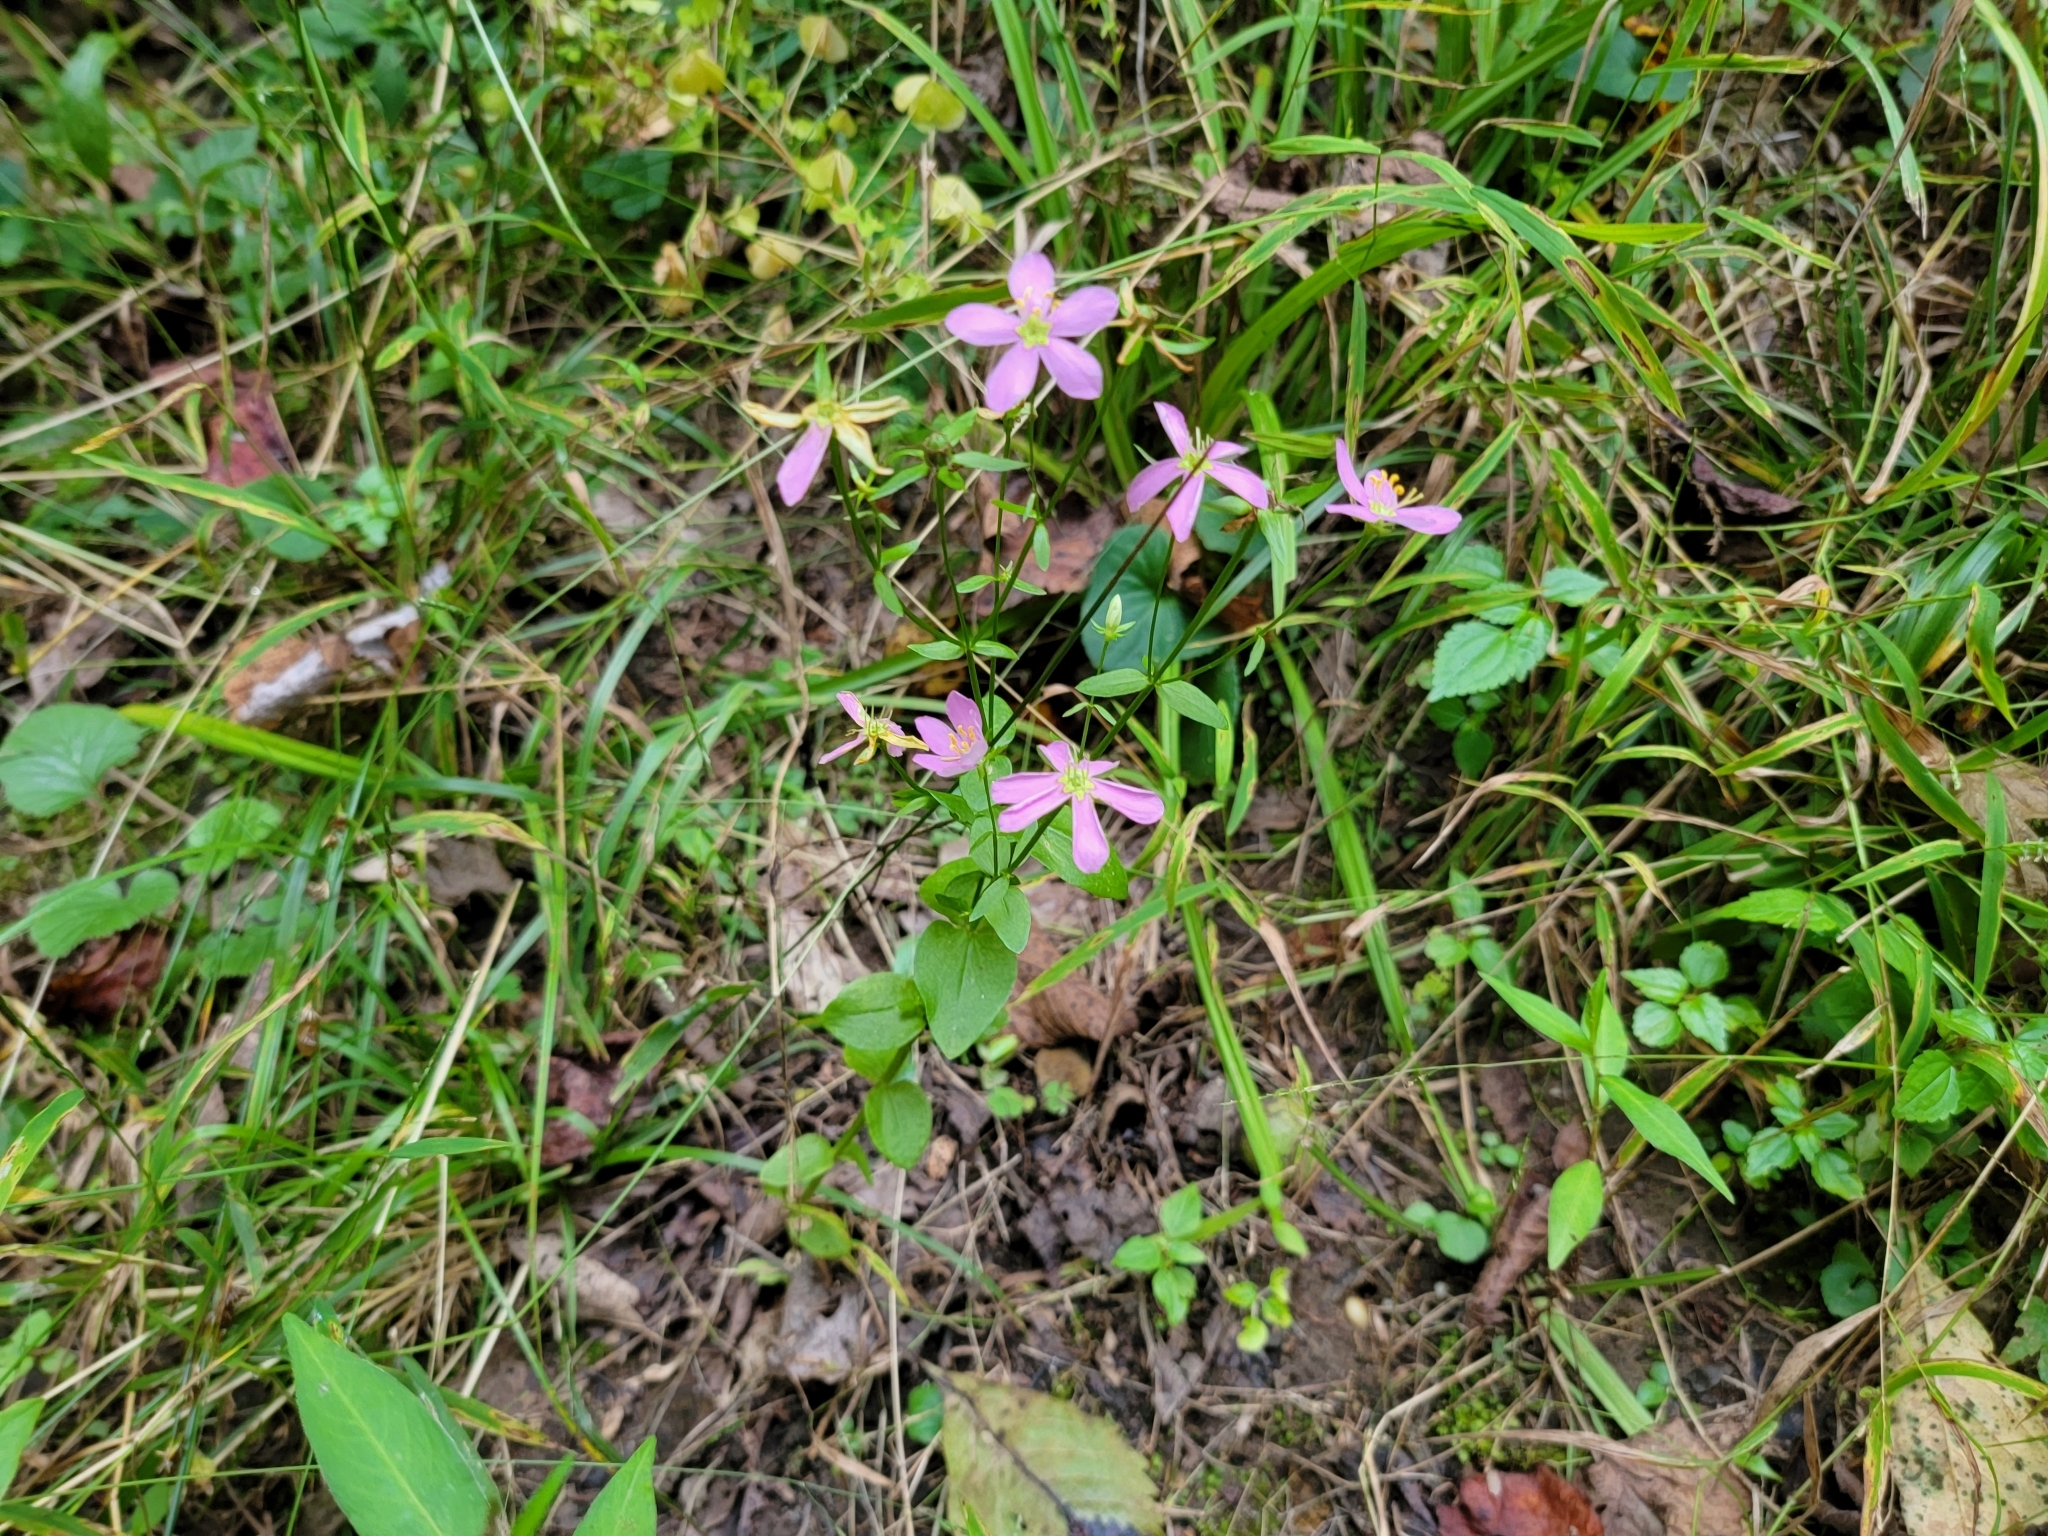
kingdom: Plantae
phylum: Tracheophyta
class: Magnoliopsida
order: Gentianales
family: Gentianaceae
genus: Sabatia
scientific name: Sabatia angularis
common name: Rose-pink
